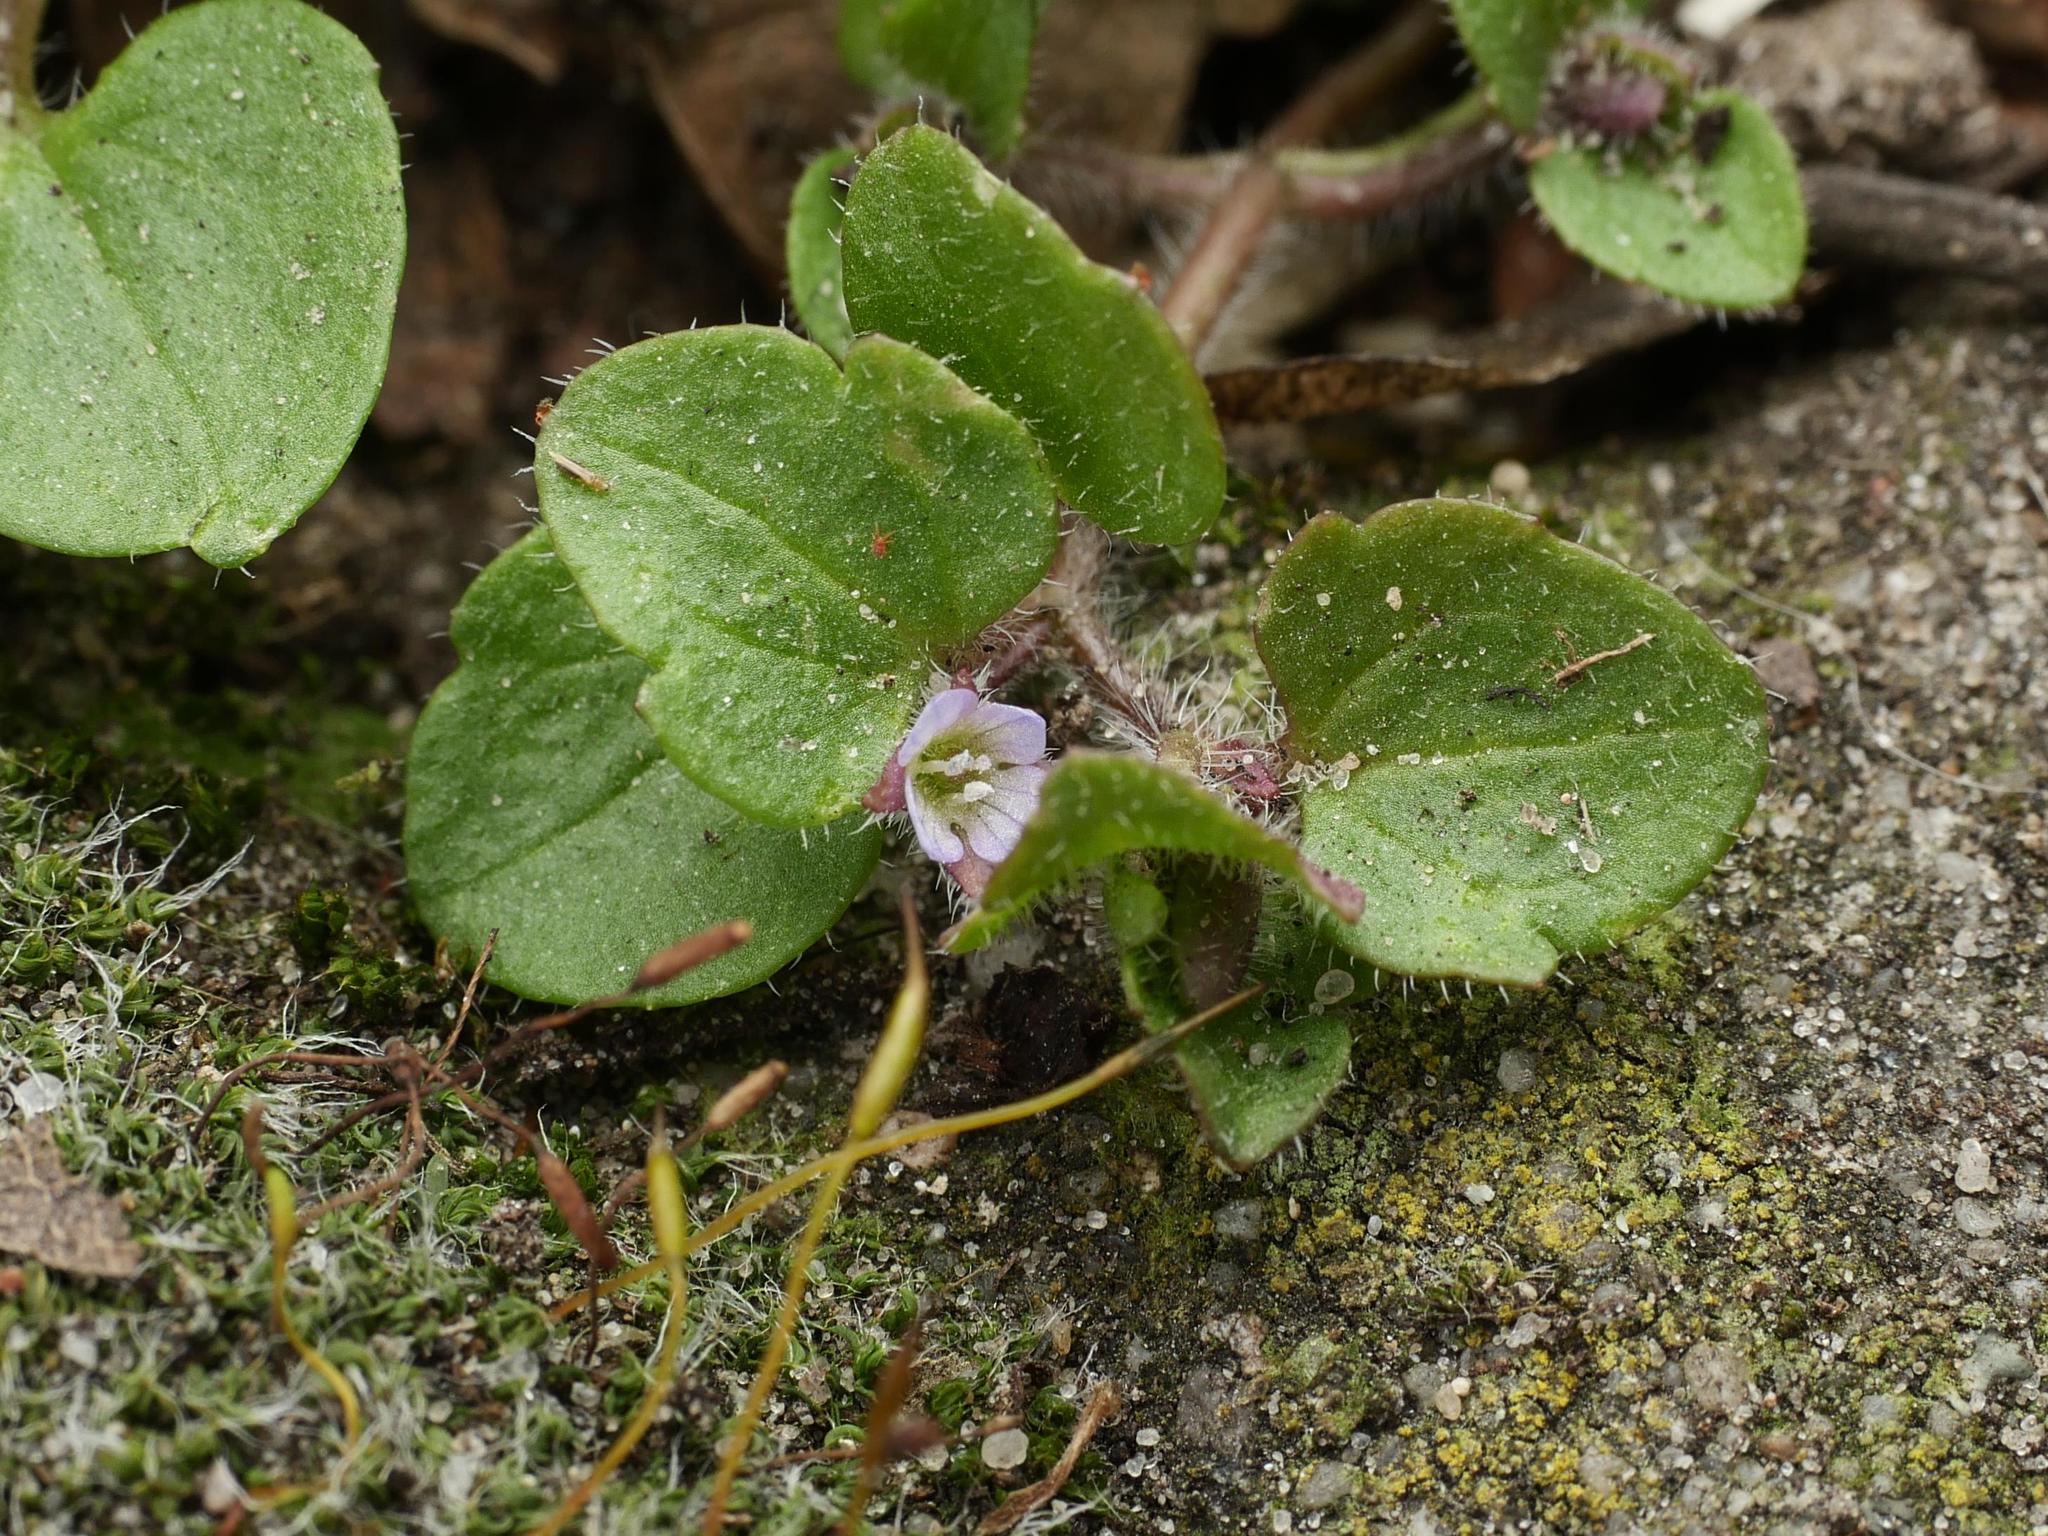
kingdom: Plantae
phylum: Tracheophyta
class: Magnoliopsida
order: Lamiales
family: Plantaginaceae
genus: Veronica
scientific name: Veronica sublobata
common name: False ivy-leaved speedwell
